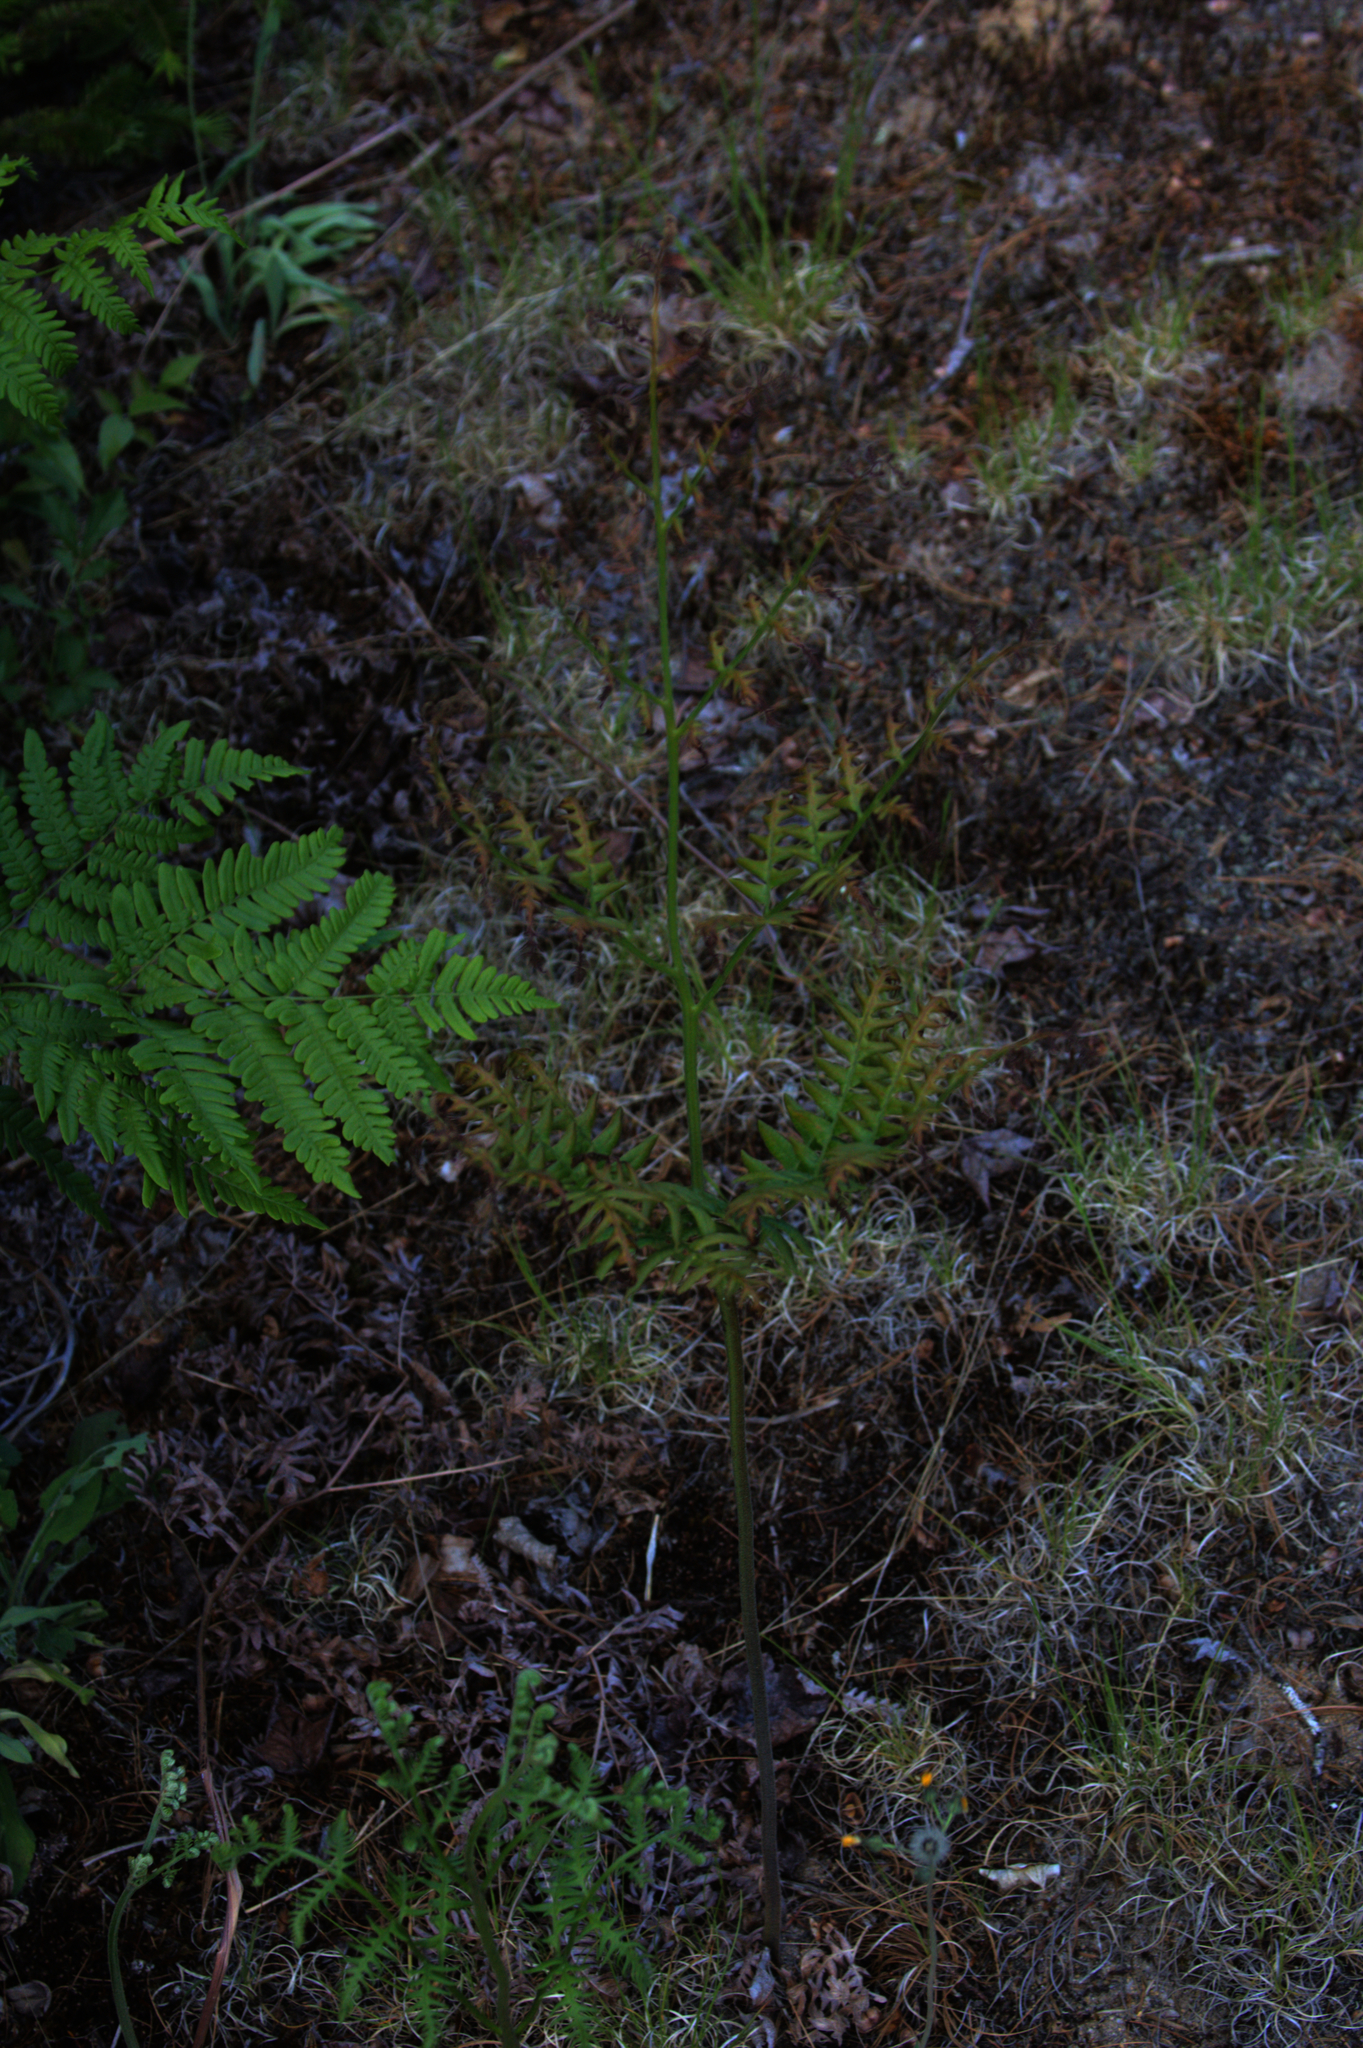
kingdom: Plantae
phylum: Tracheophyta
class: Polypodiopsida
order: Polypodiales
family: Dennstaedtiaceae
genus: Pteridium
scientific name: Pteridium aquilinum
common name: Bracken
